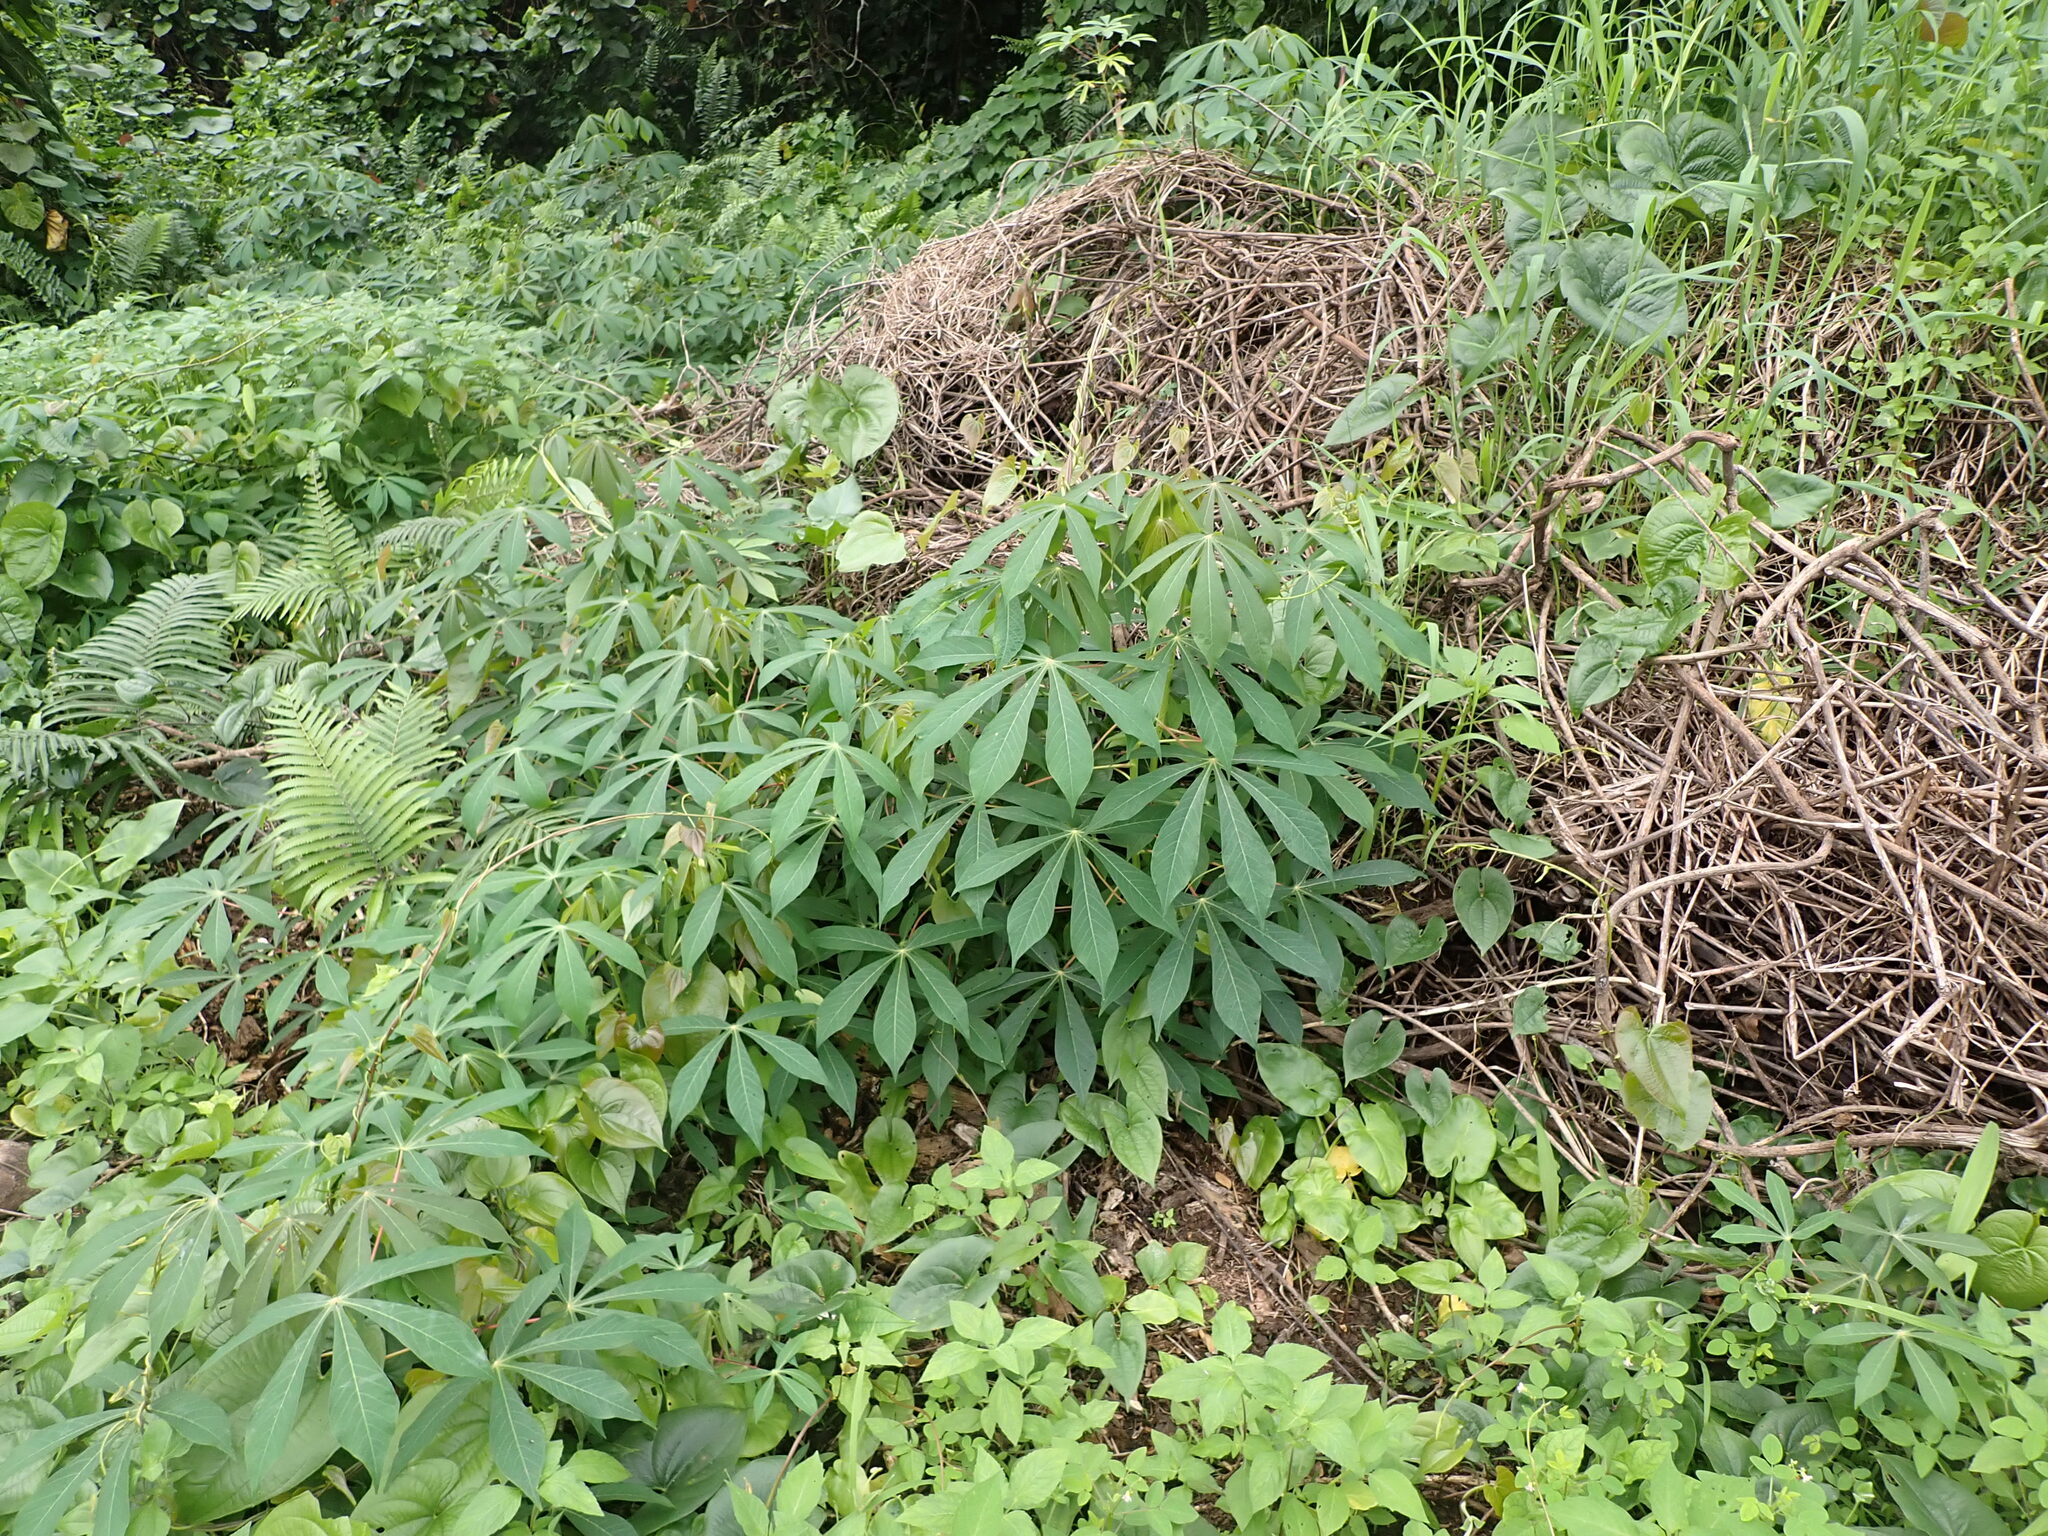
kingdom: Plantae
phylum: Tracheophyta
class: Magnoliopsida
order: Malpighiales
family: Euphorbiaceae
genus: Manihot
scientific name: Manihot esculenta
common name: Cassava
